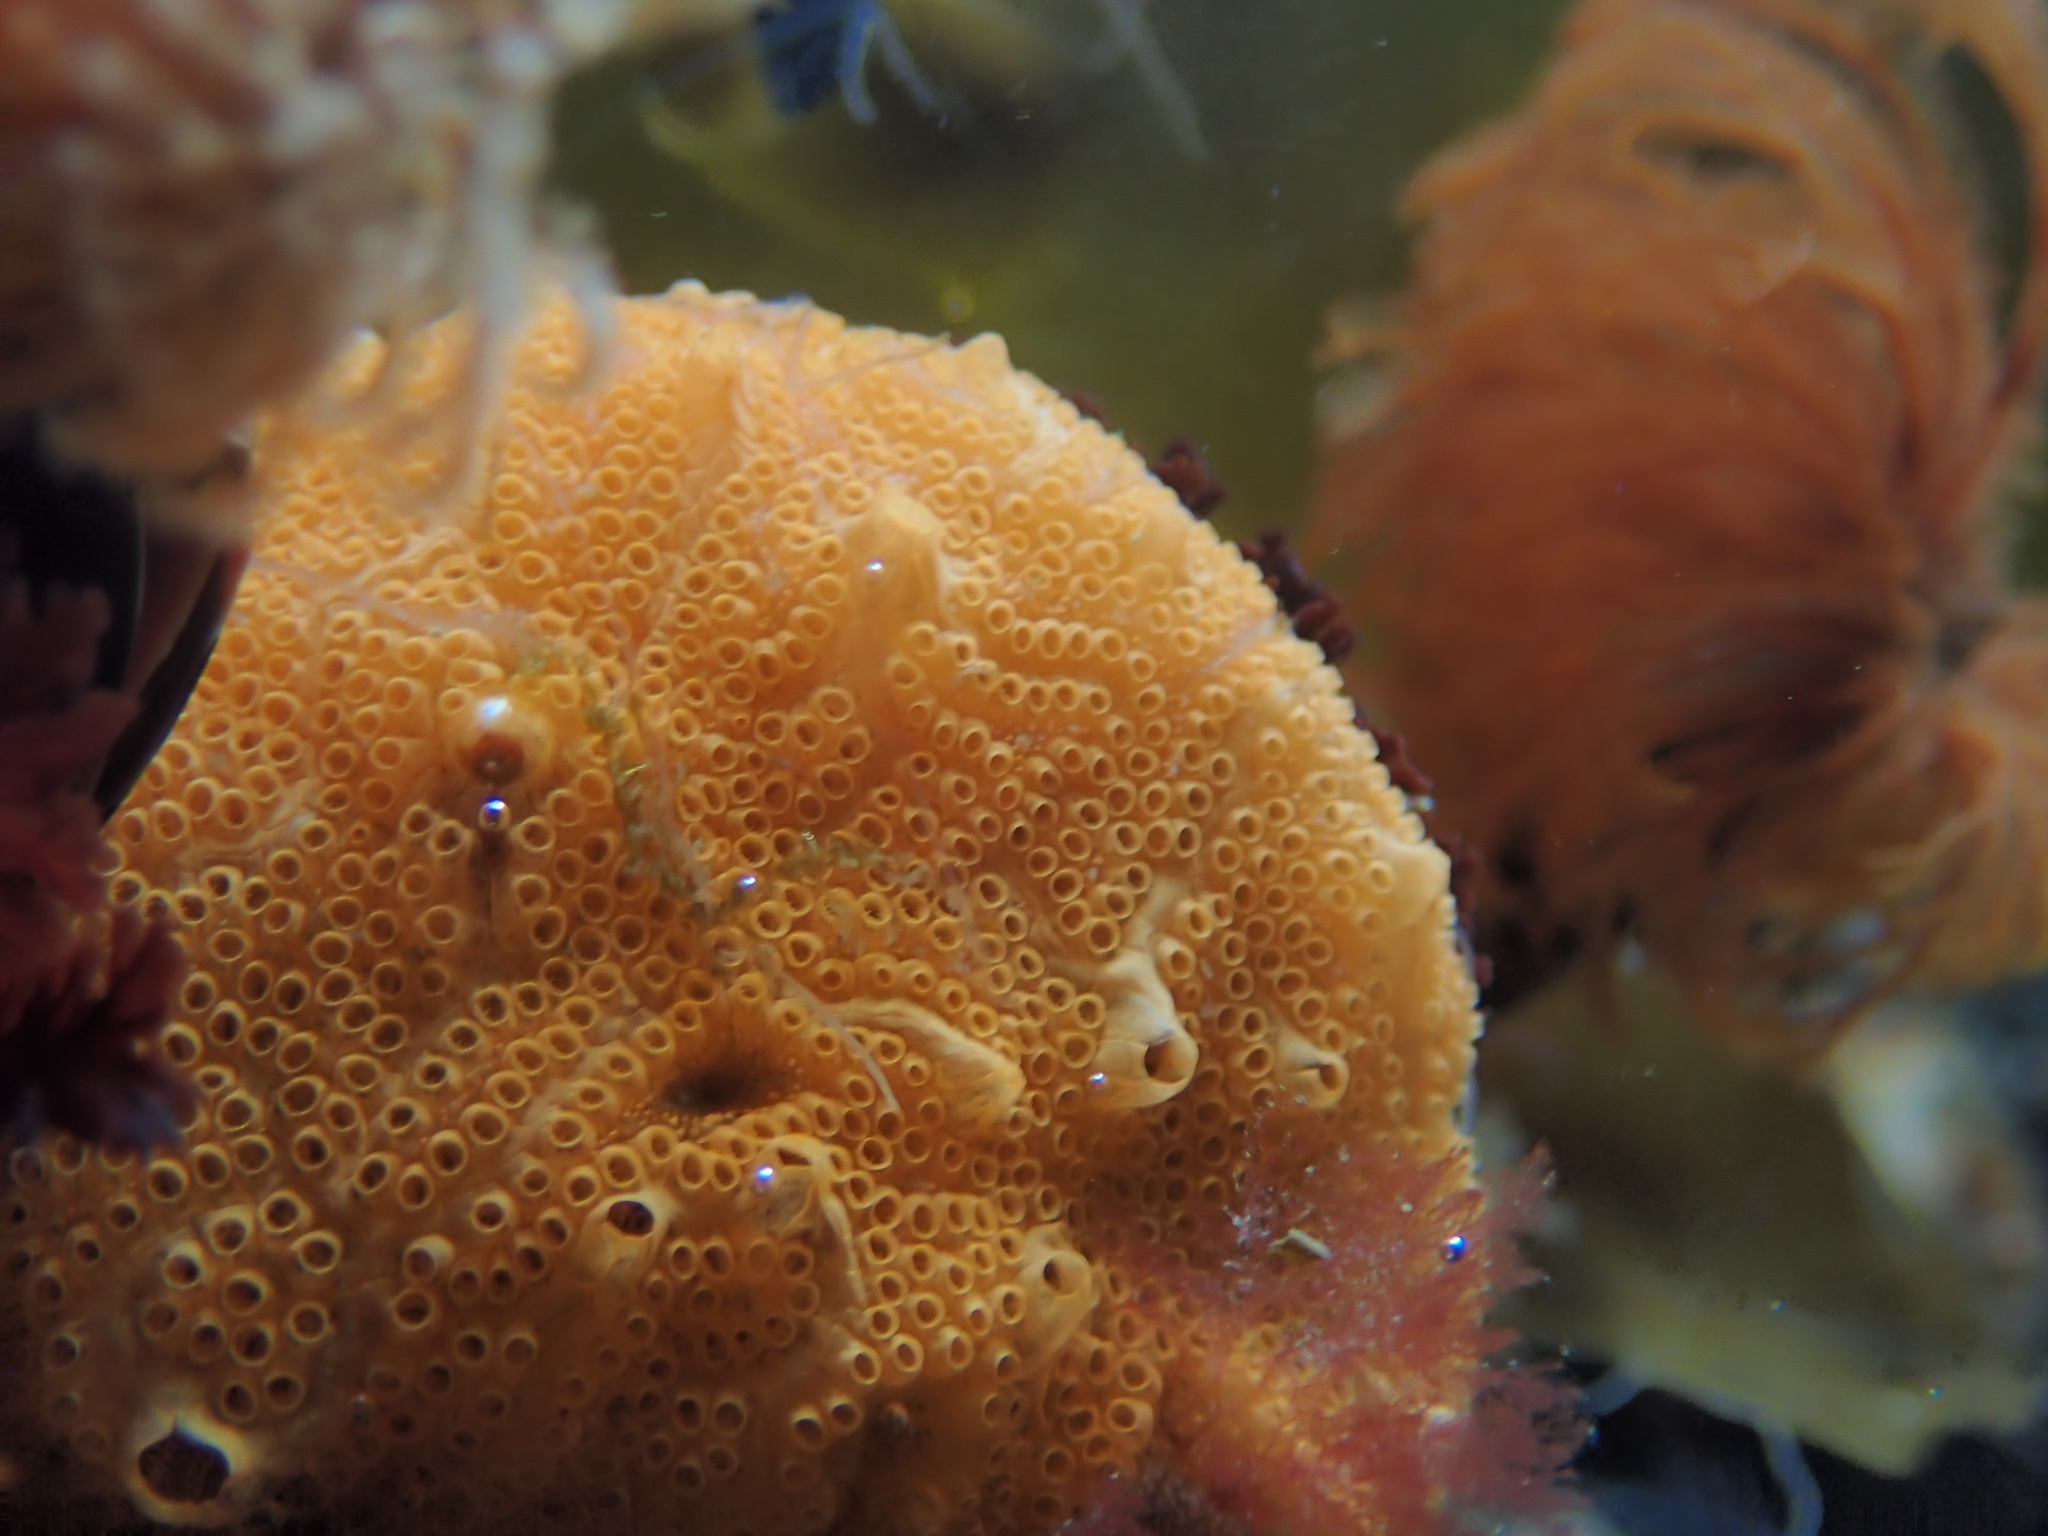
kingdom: Animalia
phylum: Chordata
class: Ascidiacea
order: Stolidobranchia
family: Styelidae
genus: Botrylloides
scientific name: Botrylloides violaceus
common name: Colonial sea squirt
